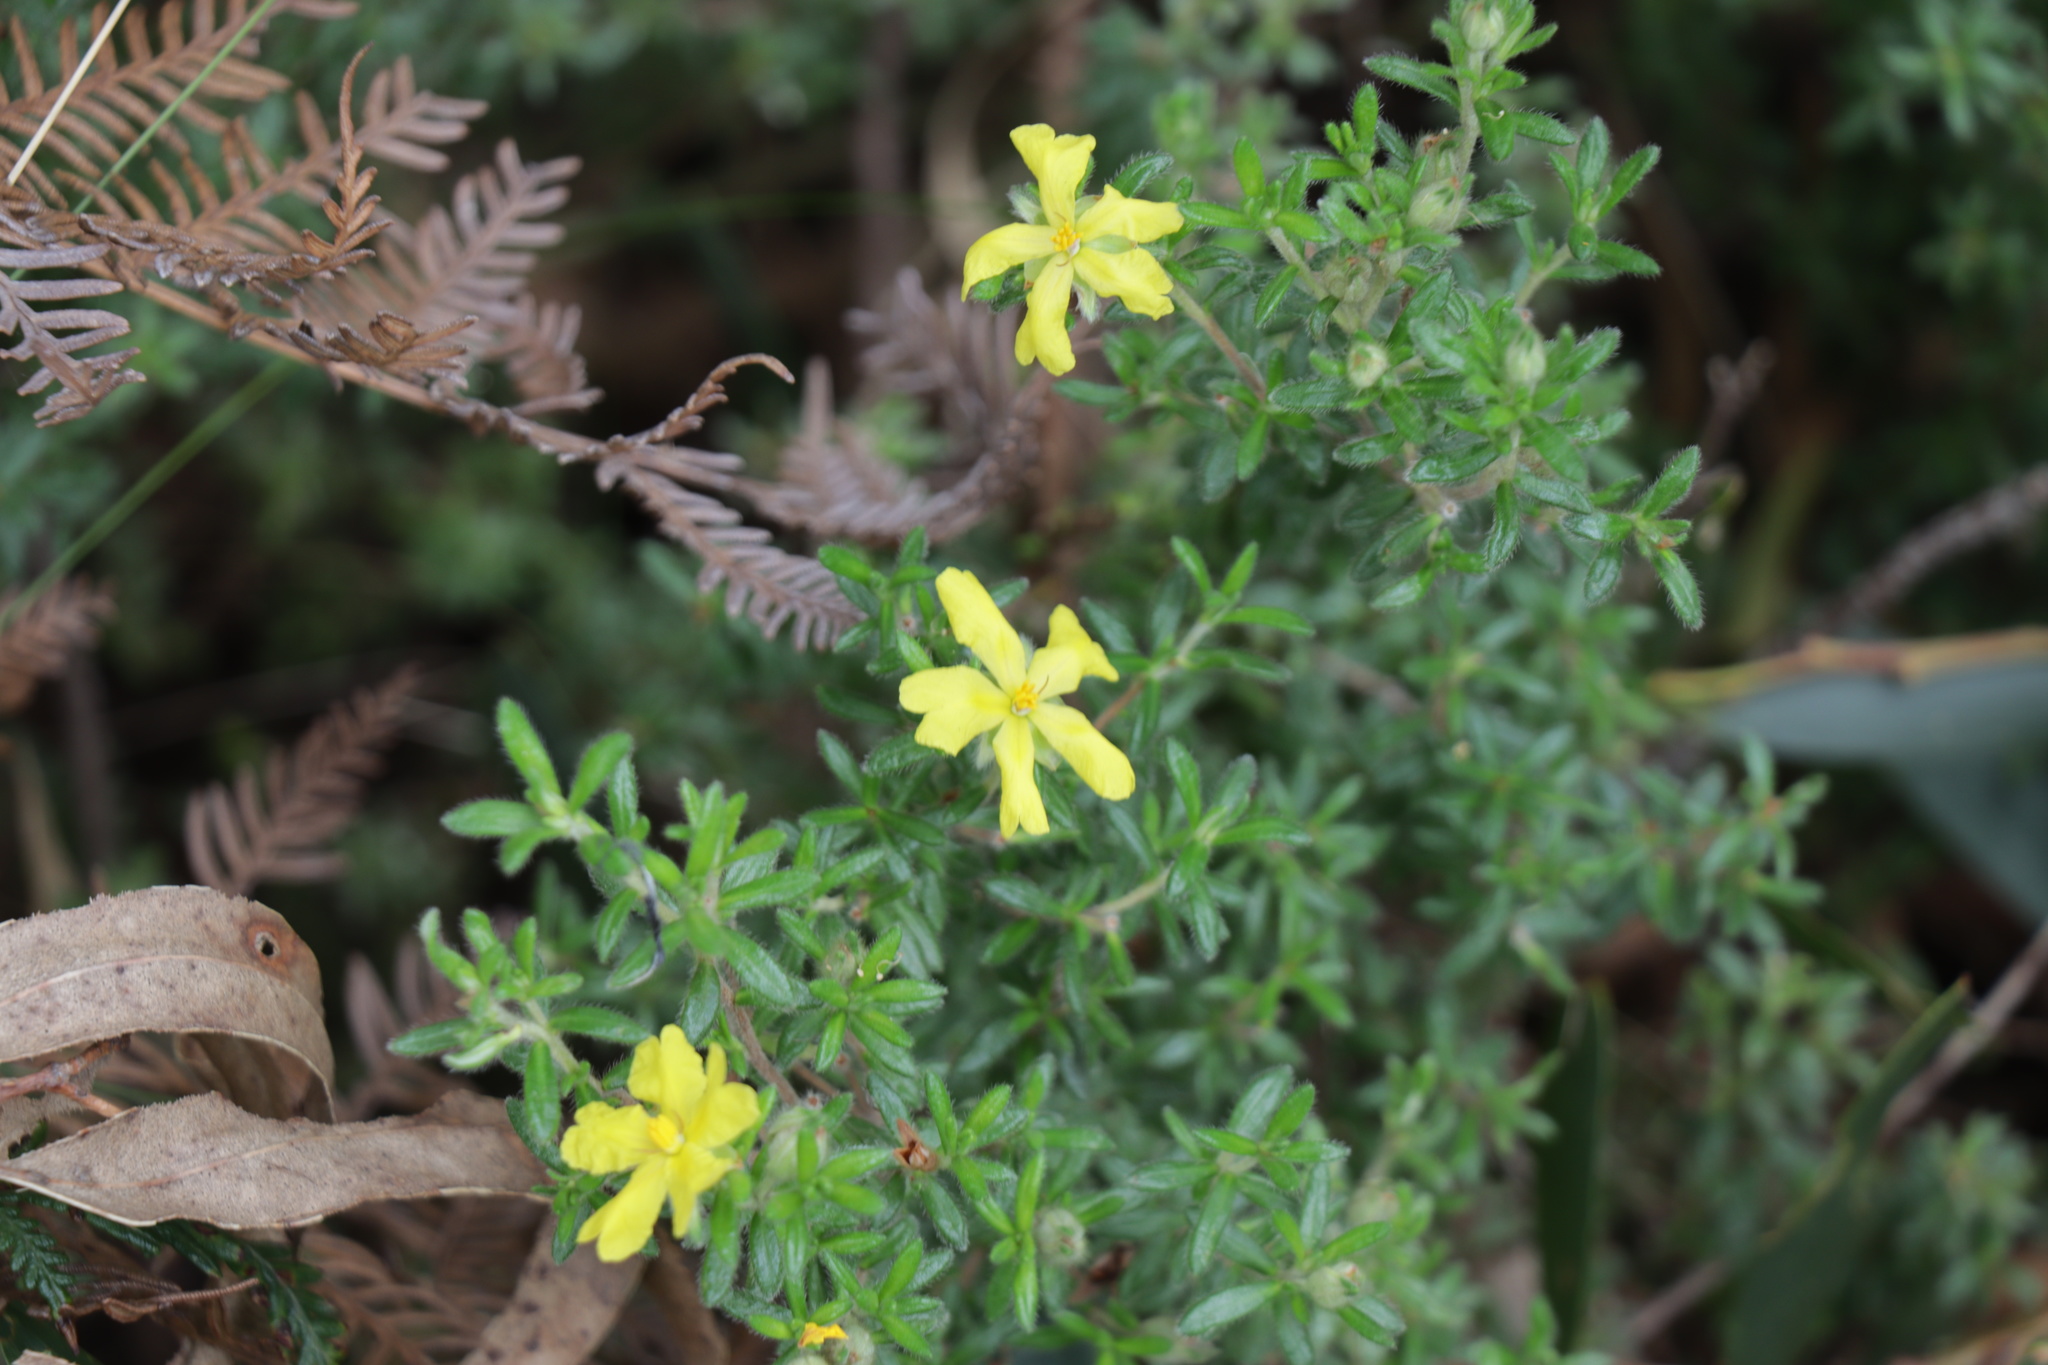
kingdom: Plantae
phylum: Tracheophyta
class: Magnoliopsida
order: Dilleniales
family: Dilleniaceae
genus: Hibbertia
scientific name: Hibbertia sericea
